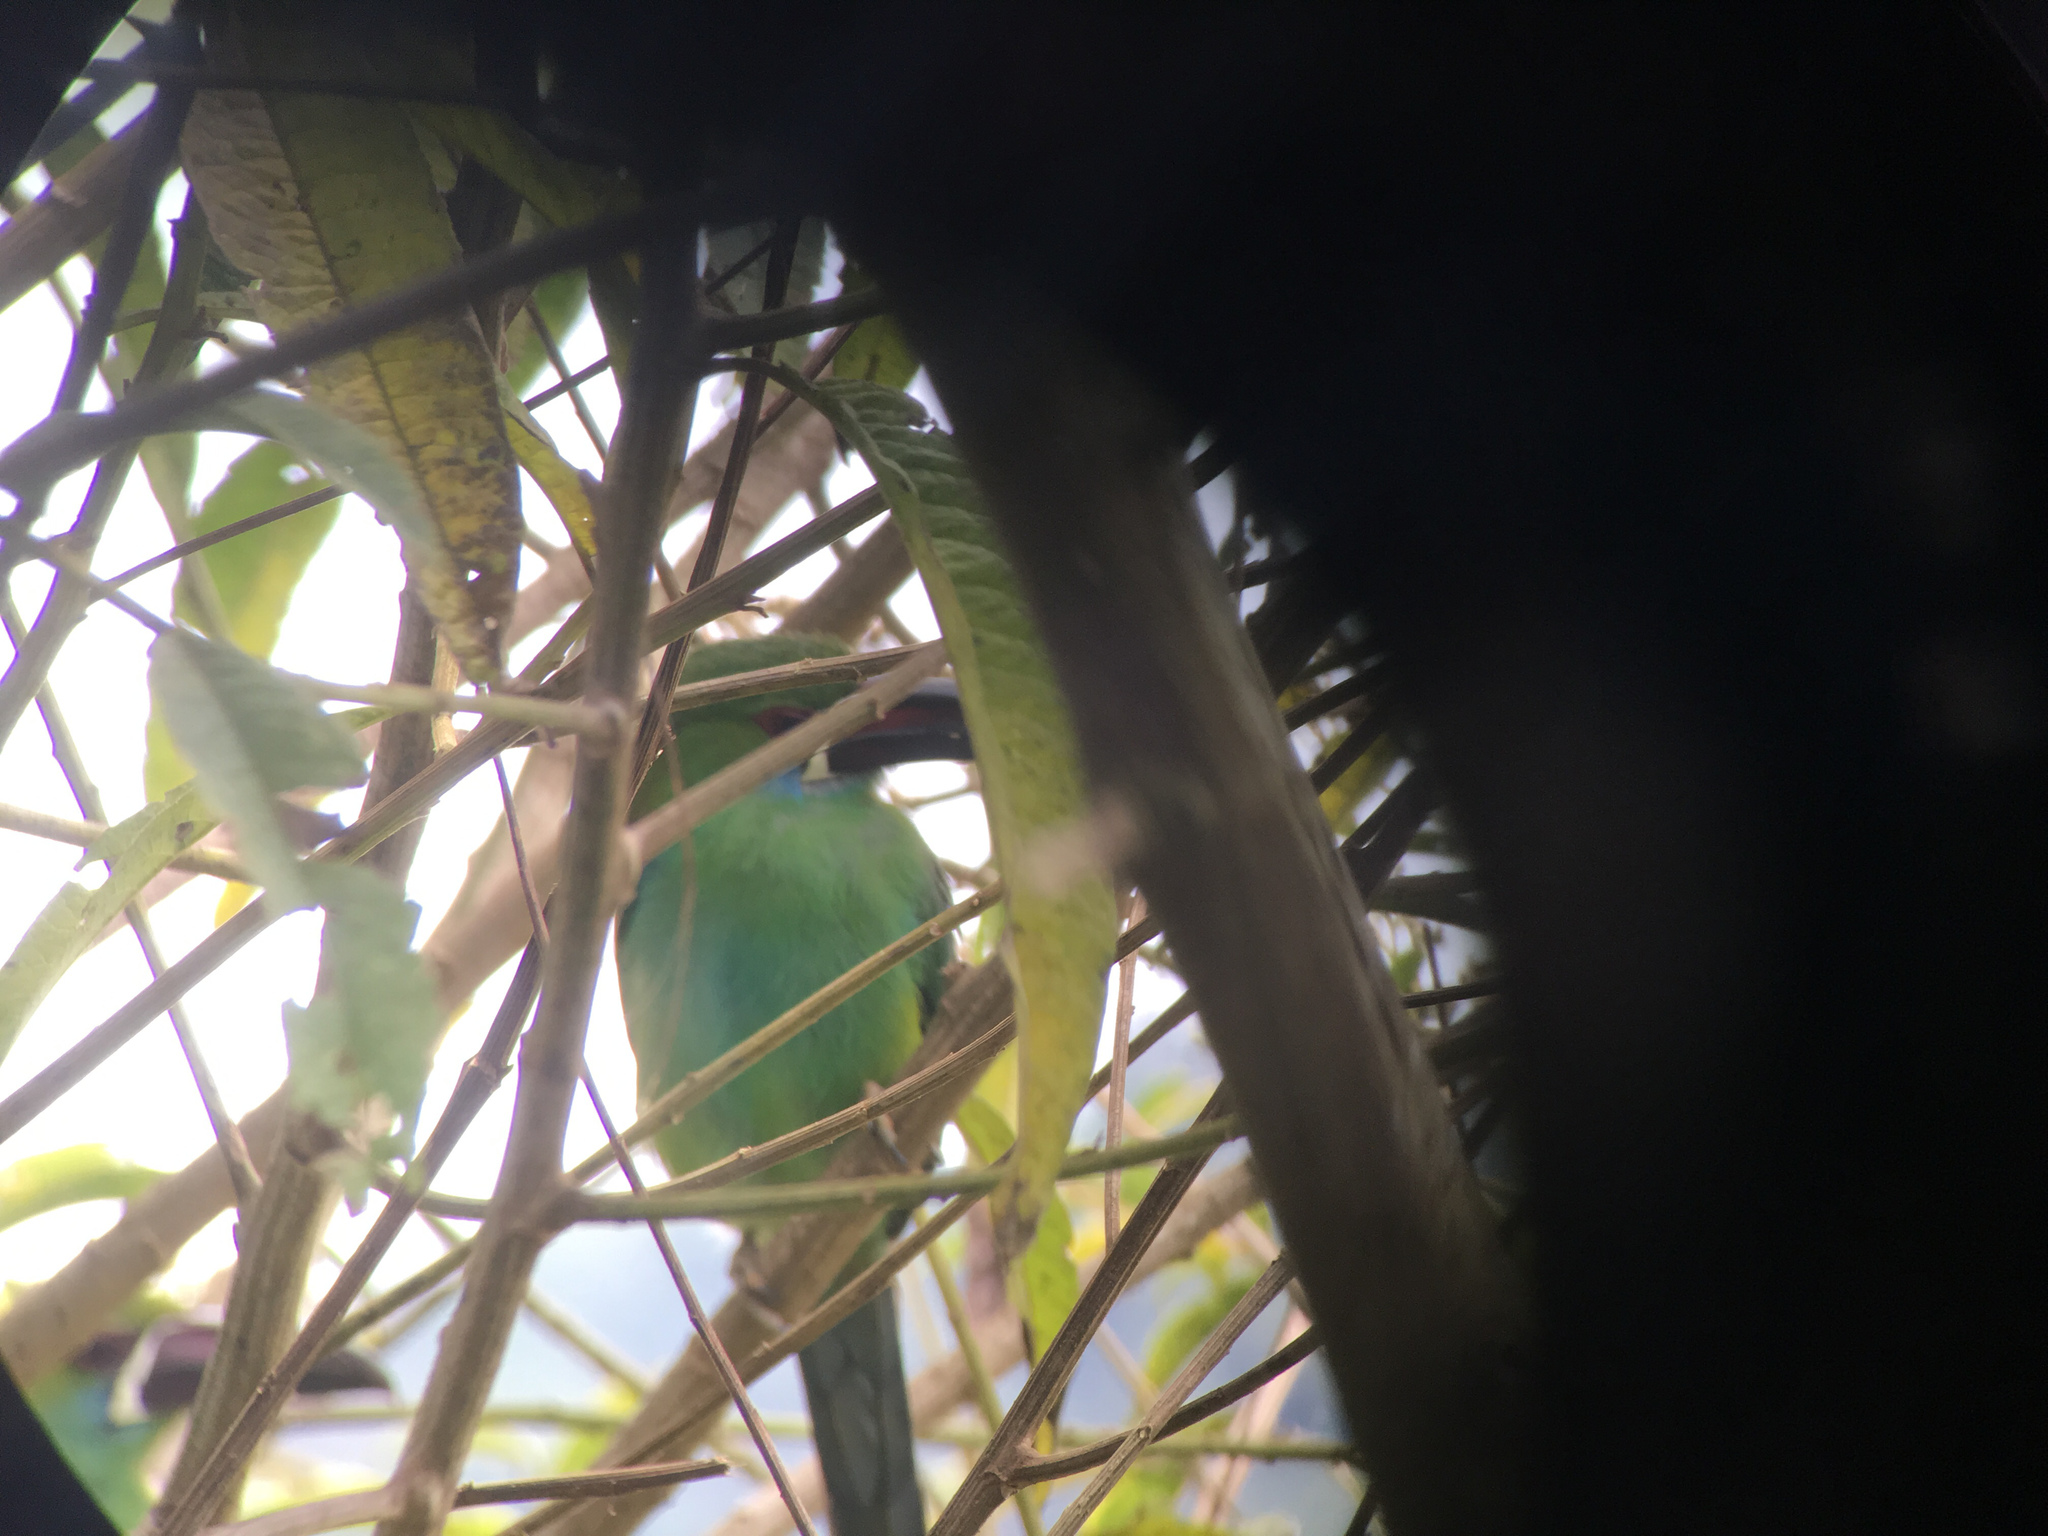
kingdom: Animalia
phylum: Chordata
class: Aves
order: Piciformes
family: Ramphastidae
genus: Aulacorhynchus
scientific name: Aulacorhynchus haematopygus
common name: Crimson-rumped toucanet
